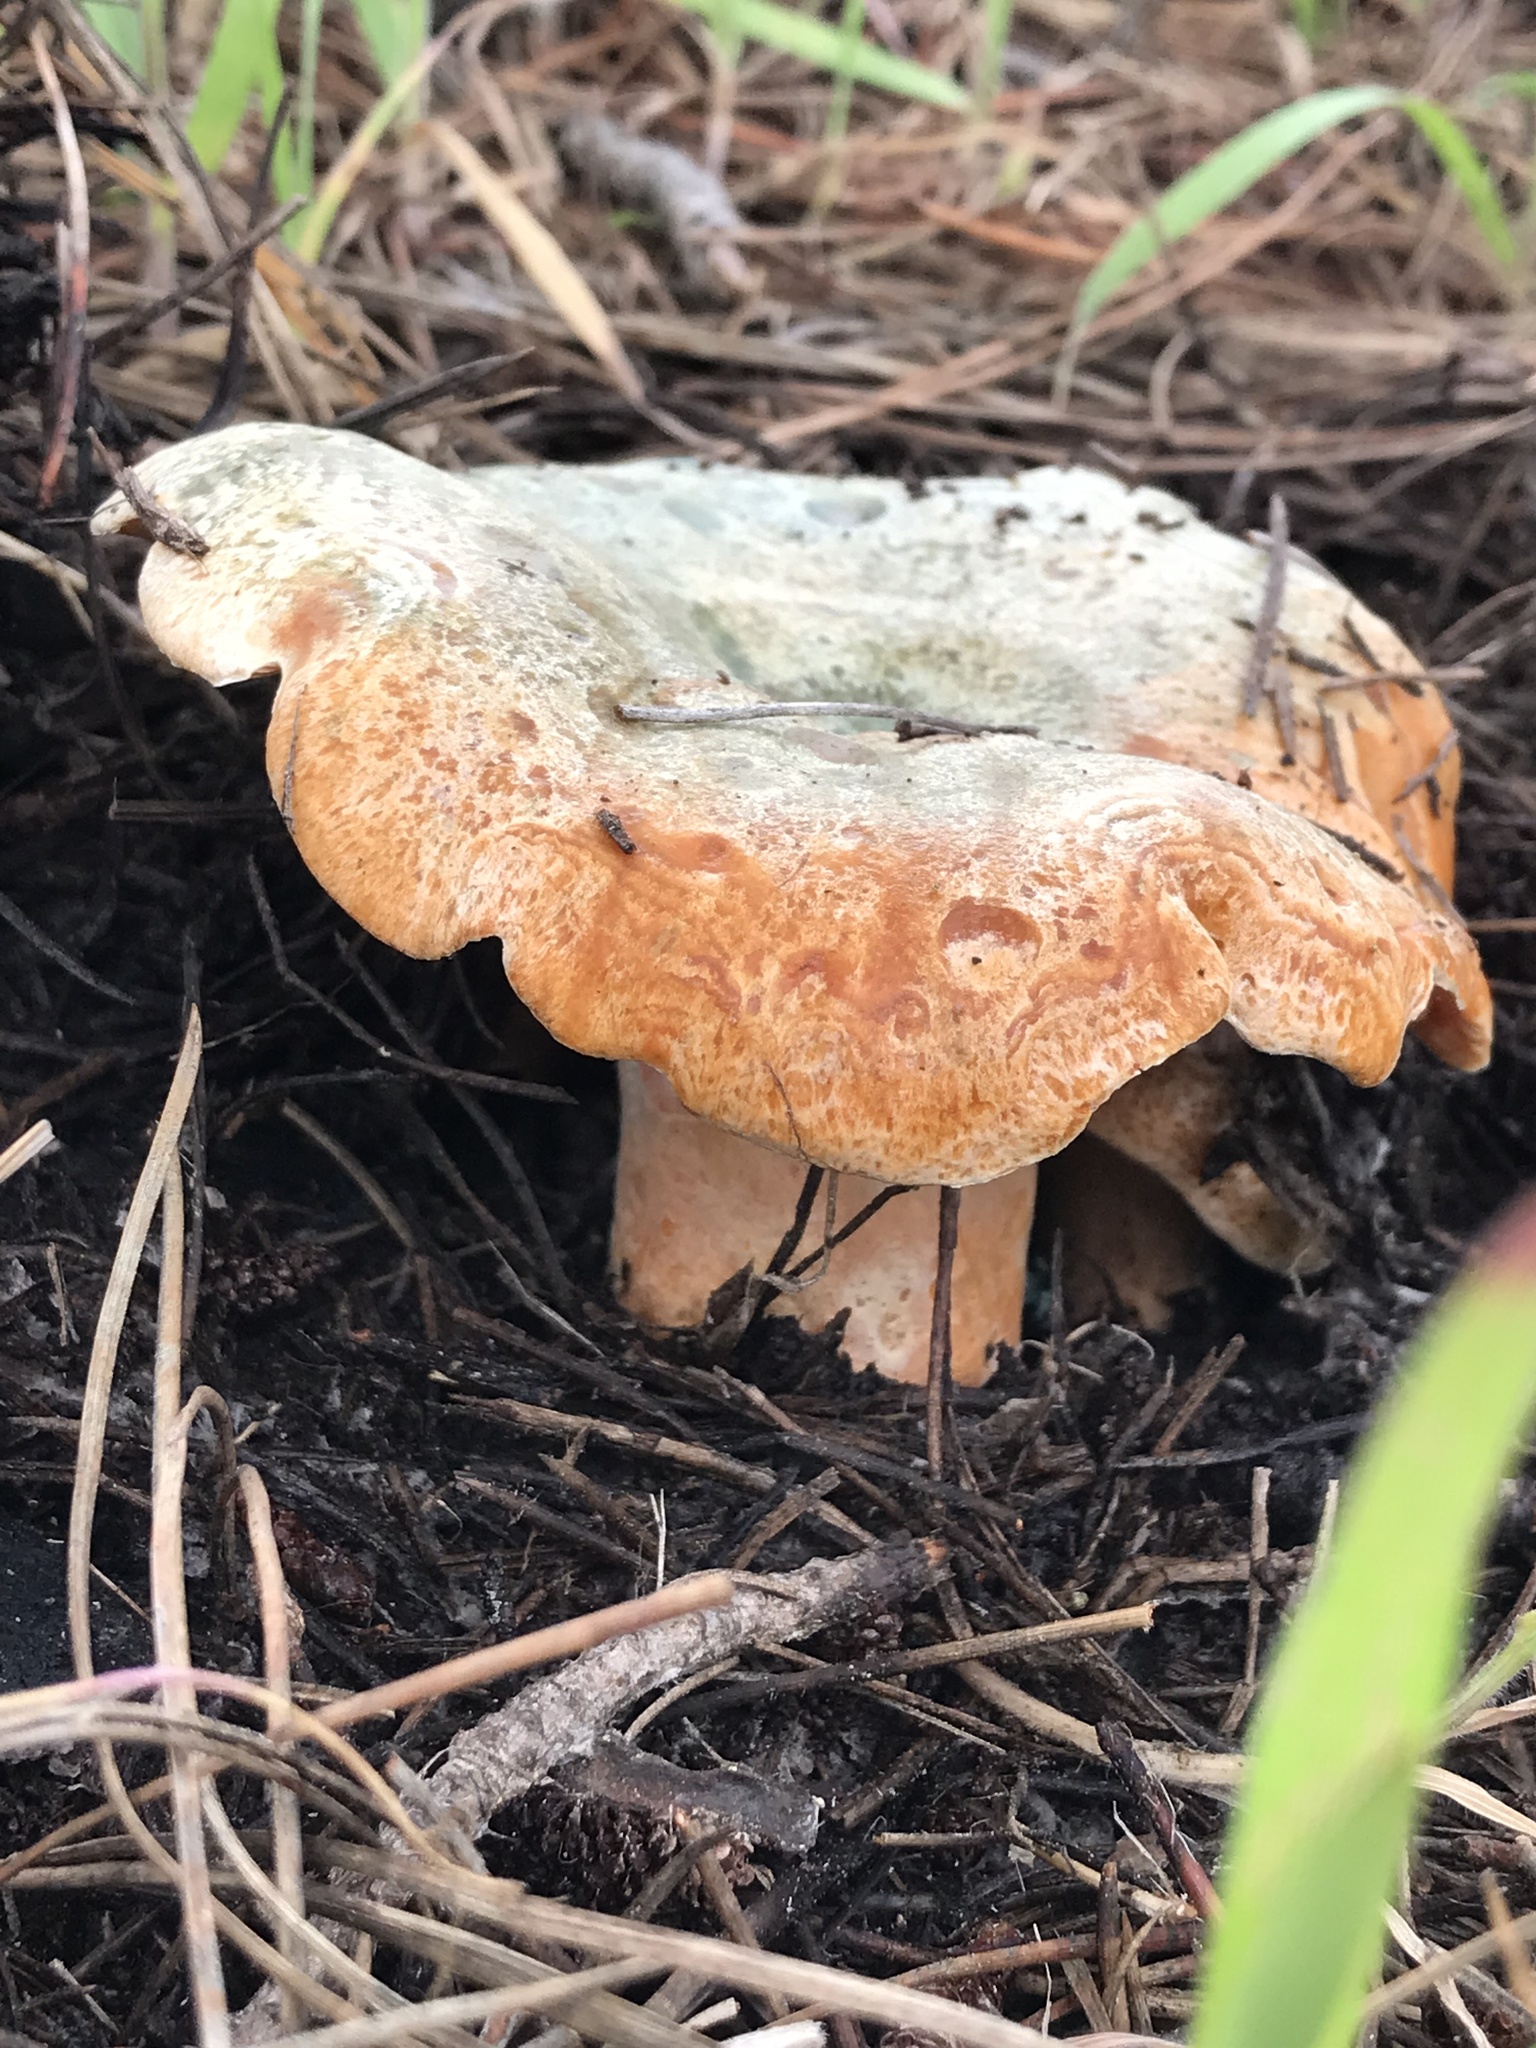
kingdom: Fungi
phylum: Basidiomycota
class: Agaricomycetes
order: Russulales
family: Russulaceae
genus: Lactarius
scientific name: Lactarius deliciosus
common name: Saffron milk-cap
